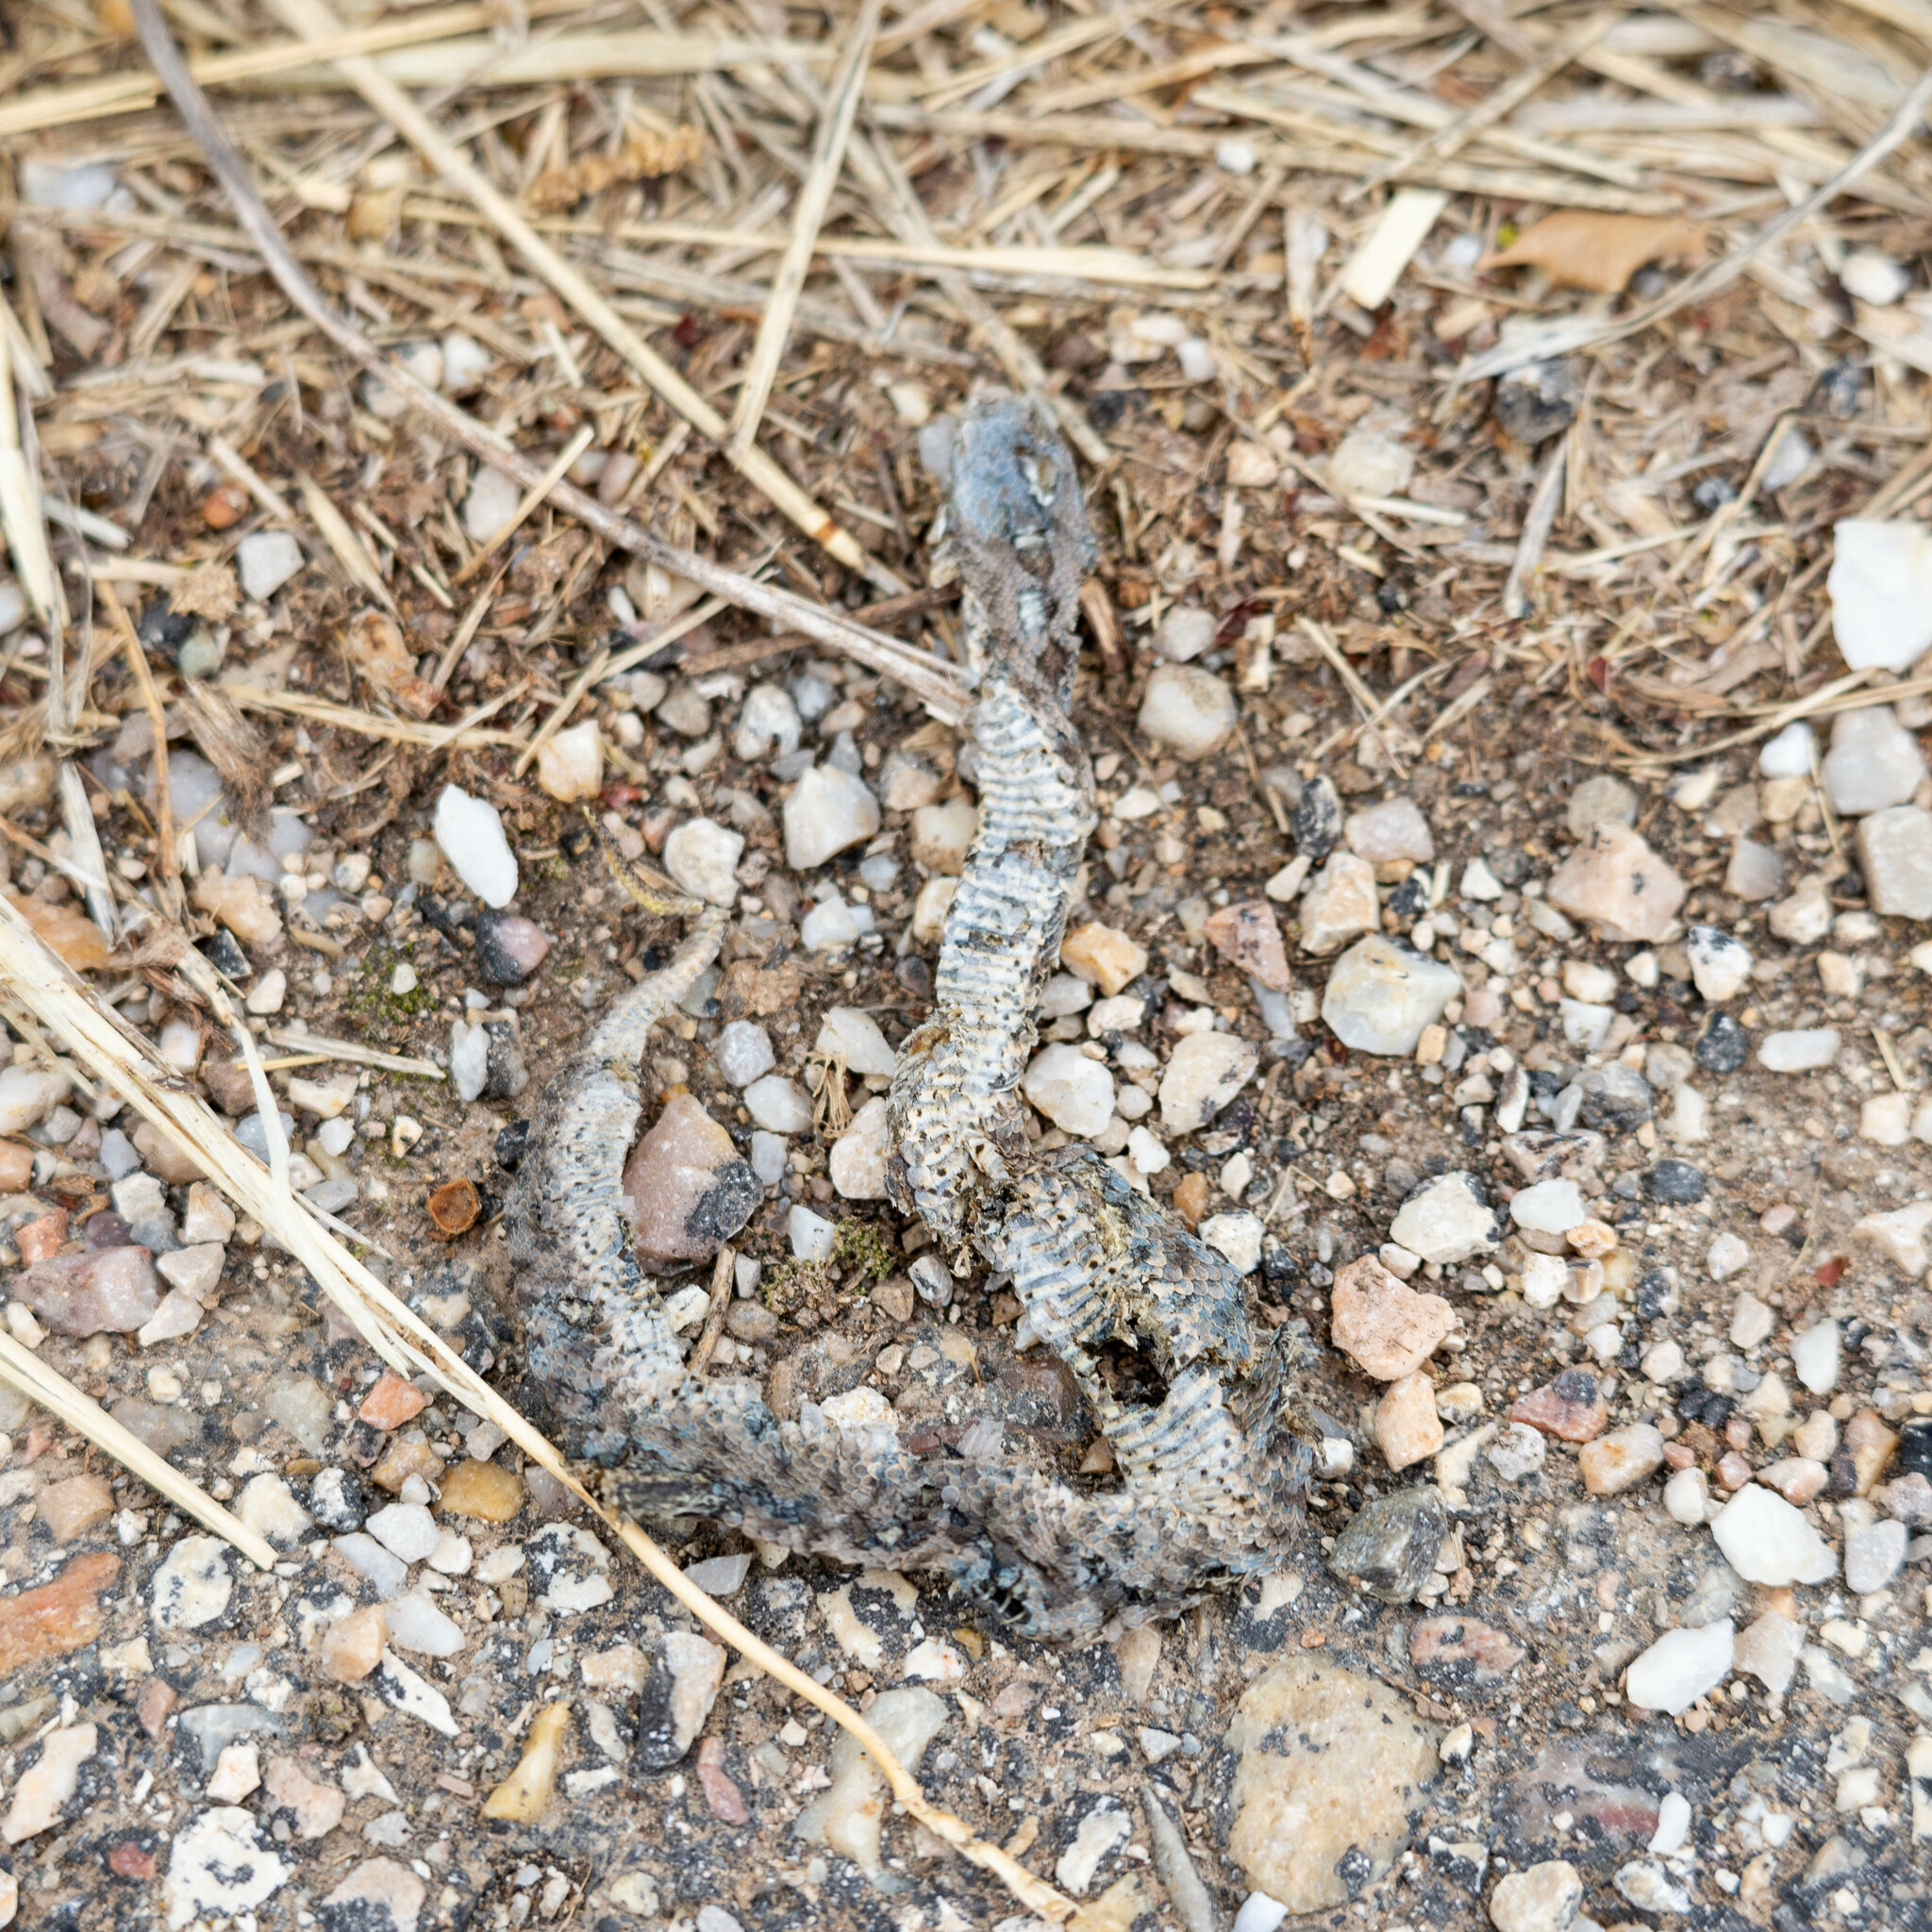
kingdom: Animalia
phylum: Chordata
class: Squamata
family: Viperidae
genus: Vipera
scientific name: Vipera latastei
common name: Lataste's viper
